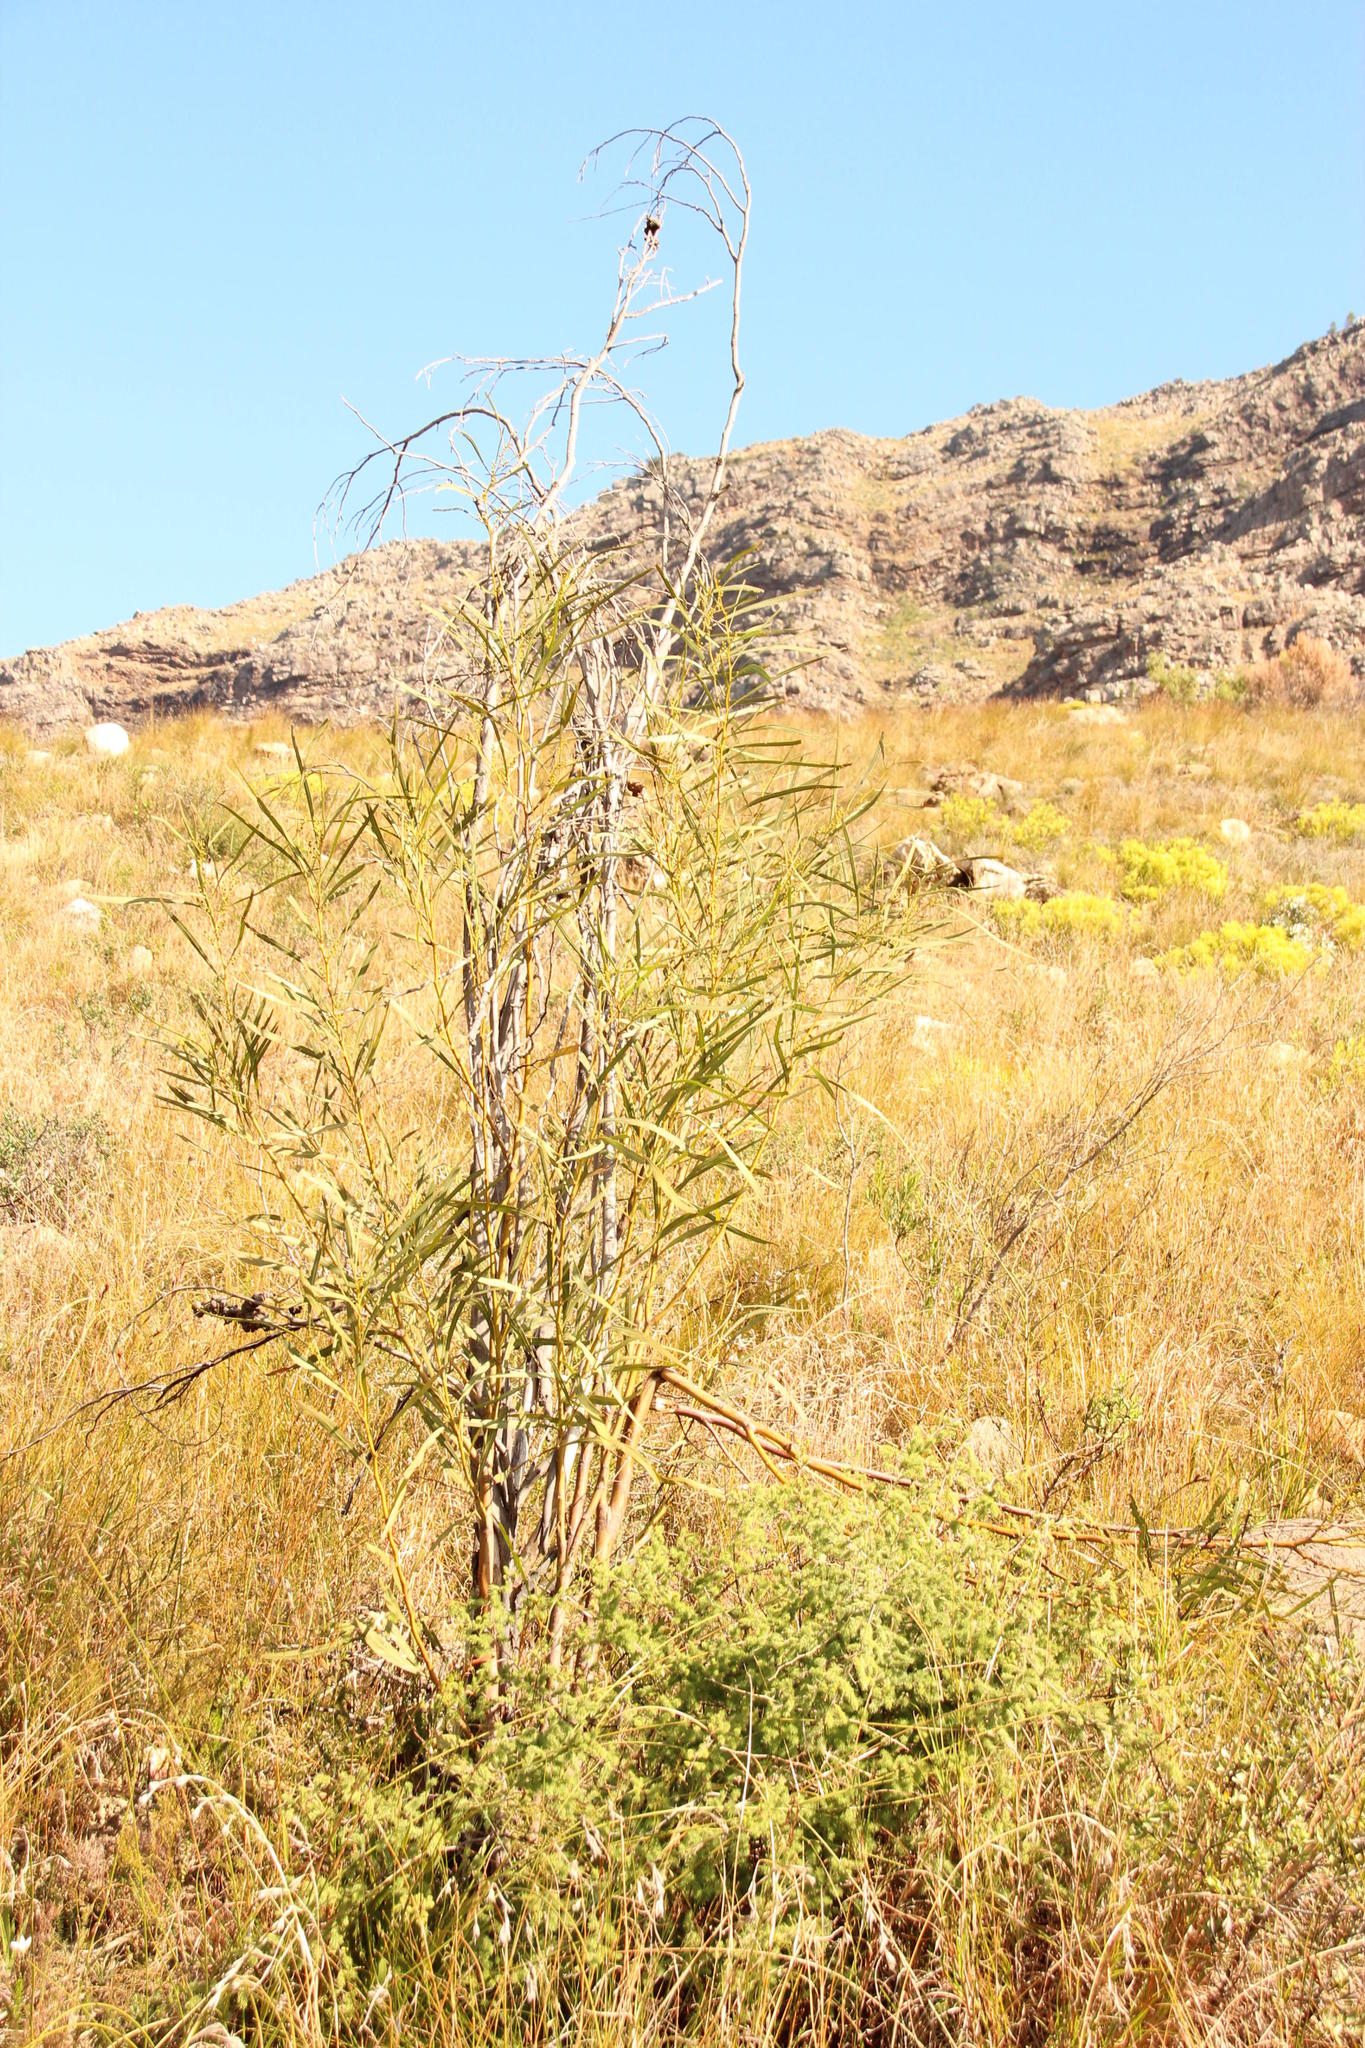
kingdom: Plantae
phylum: Tracheophyta
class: Magnoliopsida
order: Fabales
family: Fabaceae
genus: Acacia
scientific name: Acacia saligna
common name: Orange wattle
